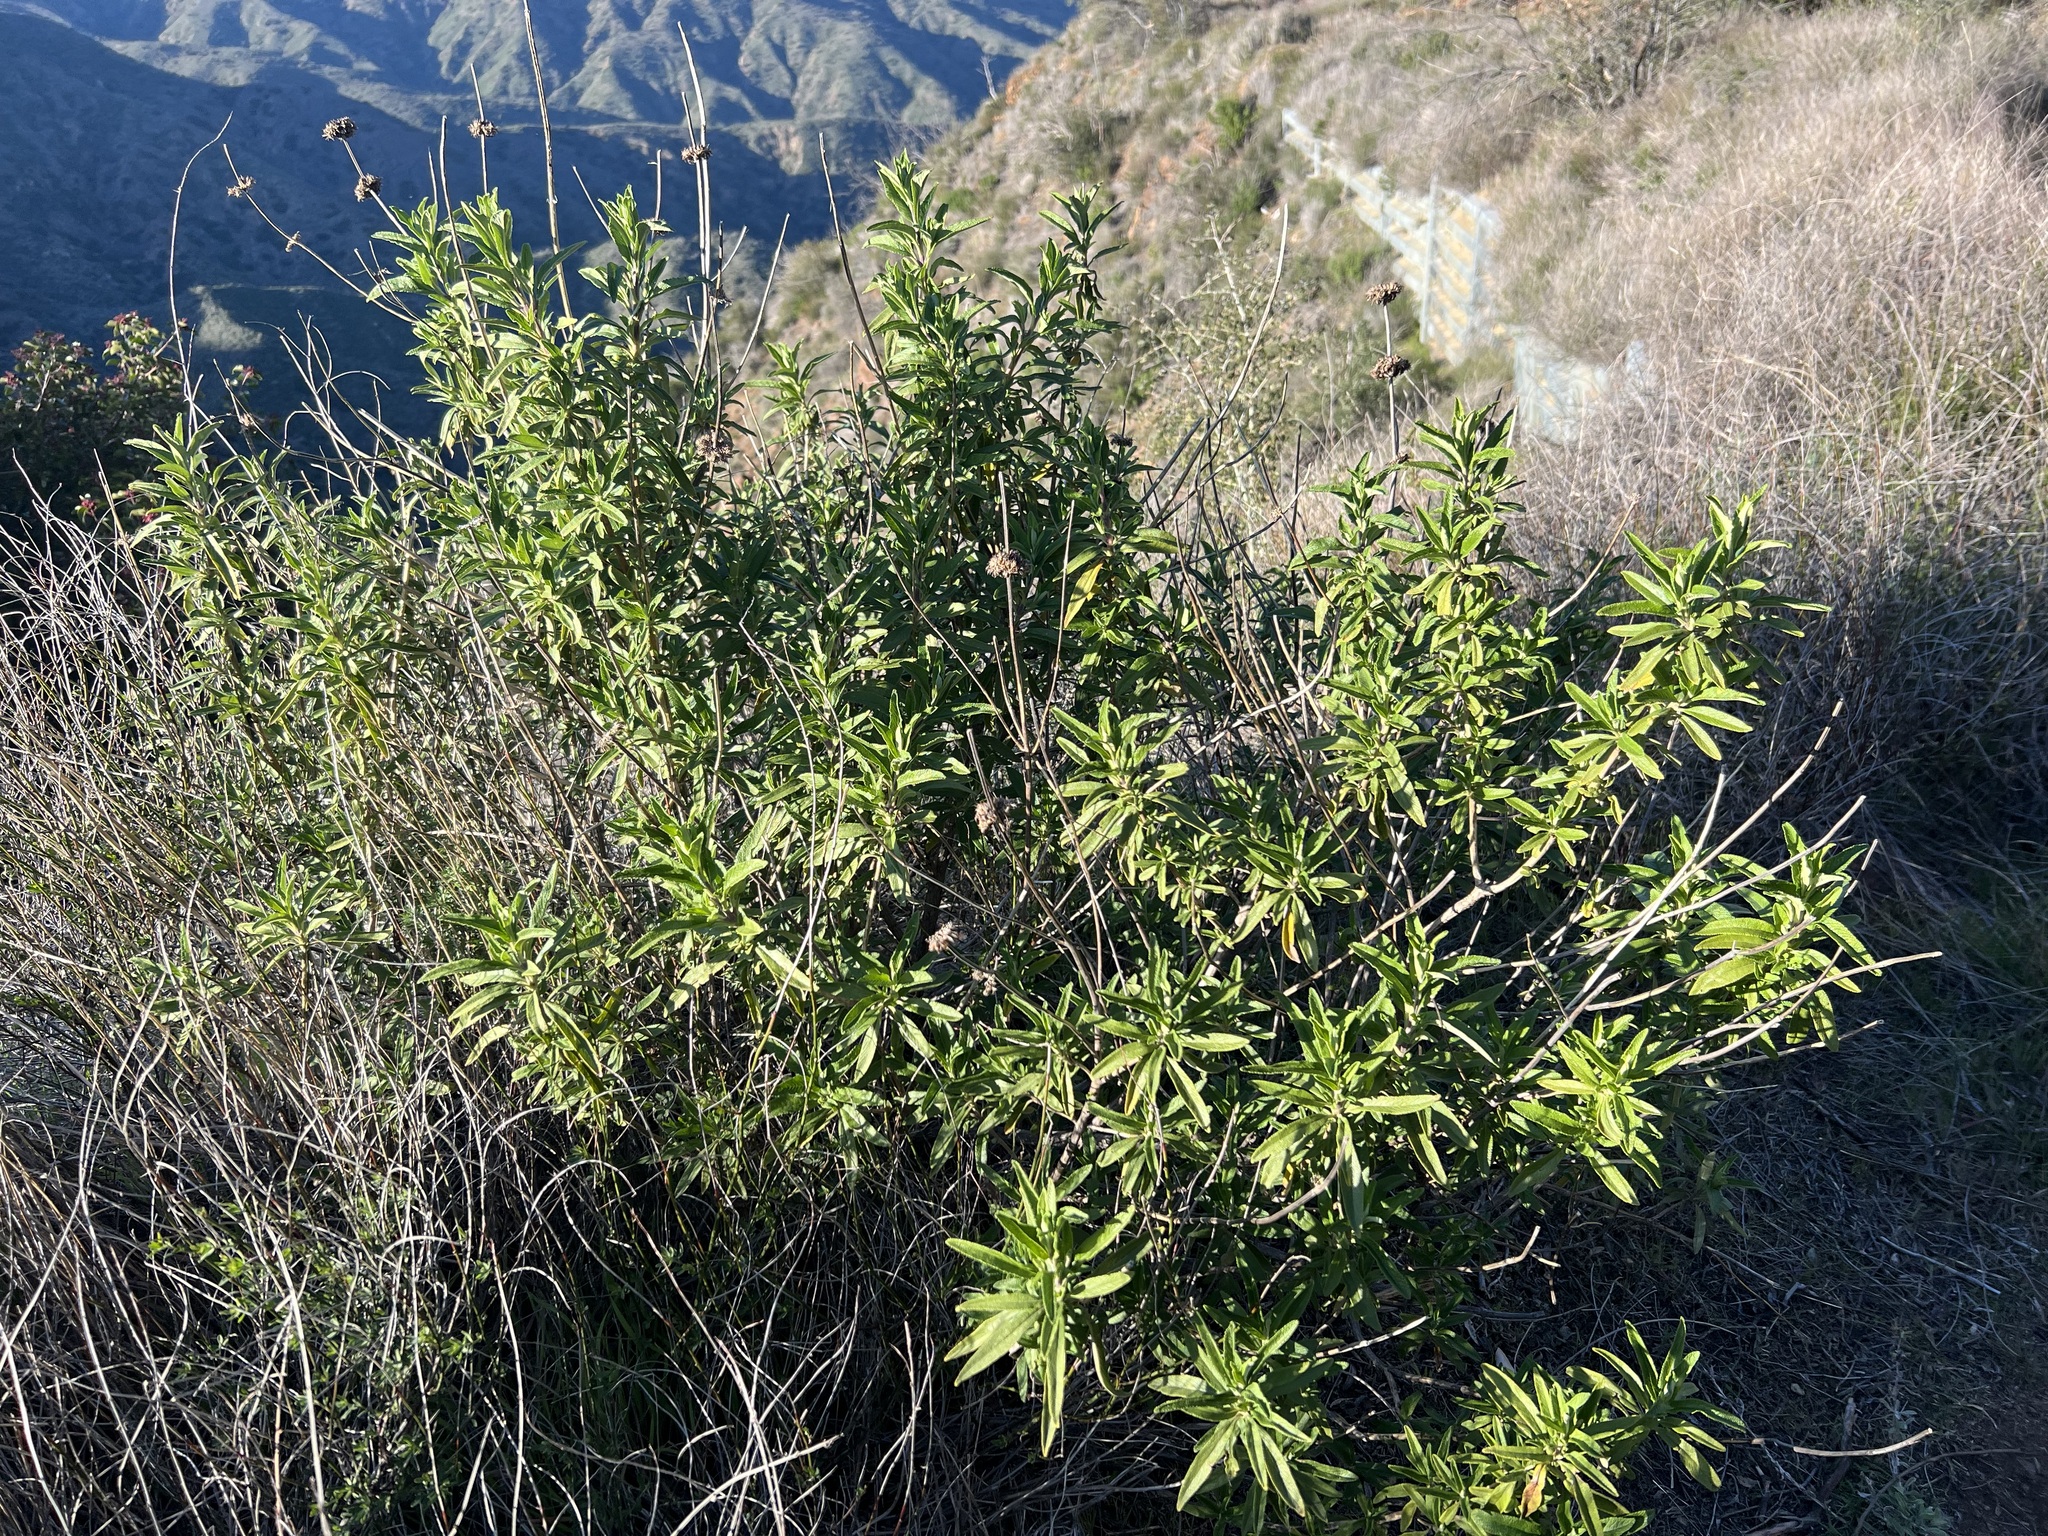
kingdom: Plantae
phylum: Tracheophyta
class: Magnoliopsida
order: Lamiales
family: Lamiaceae
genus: Salvia
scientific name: Salvia mellifera
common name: Black sage
